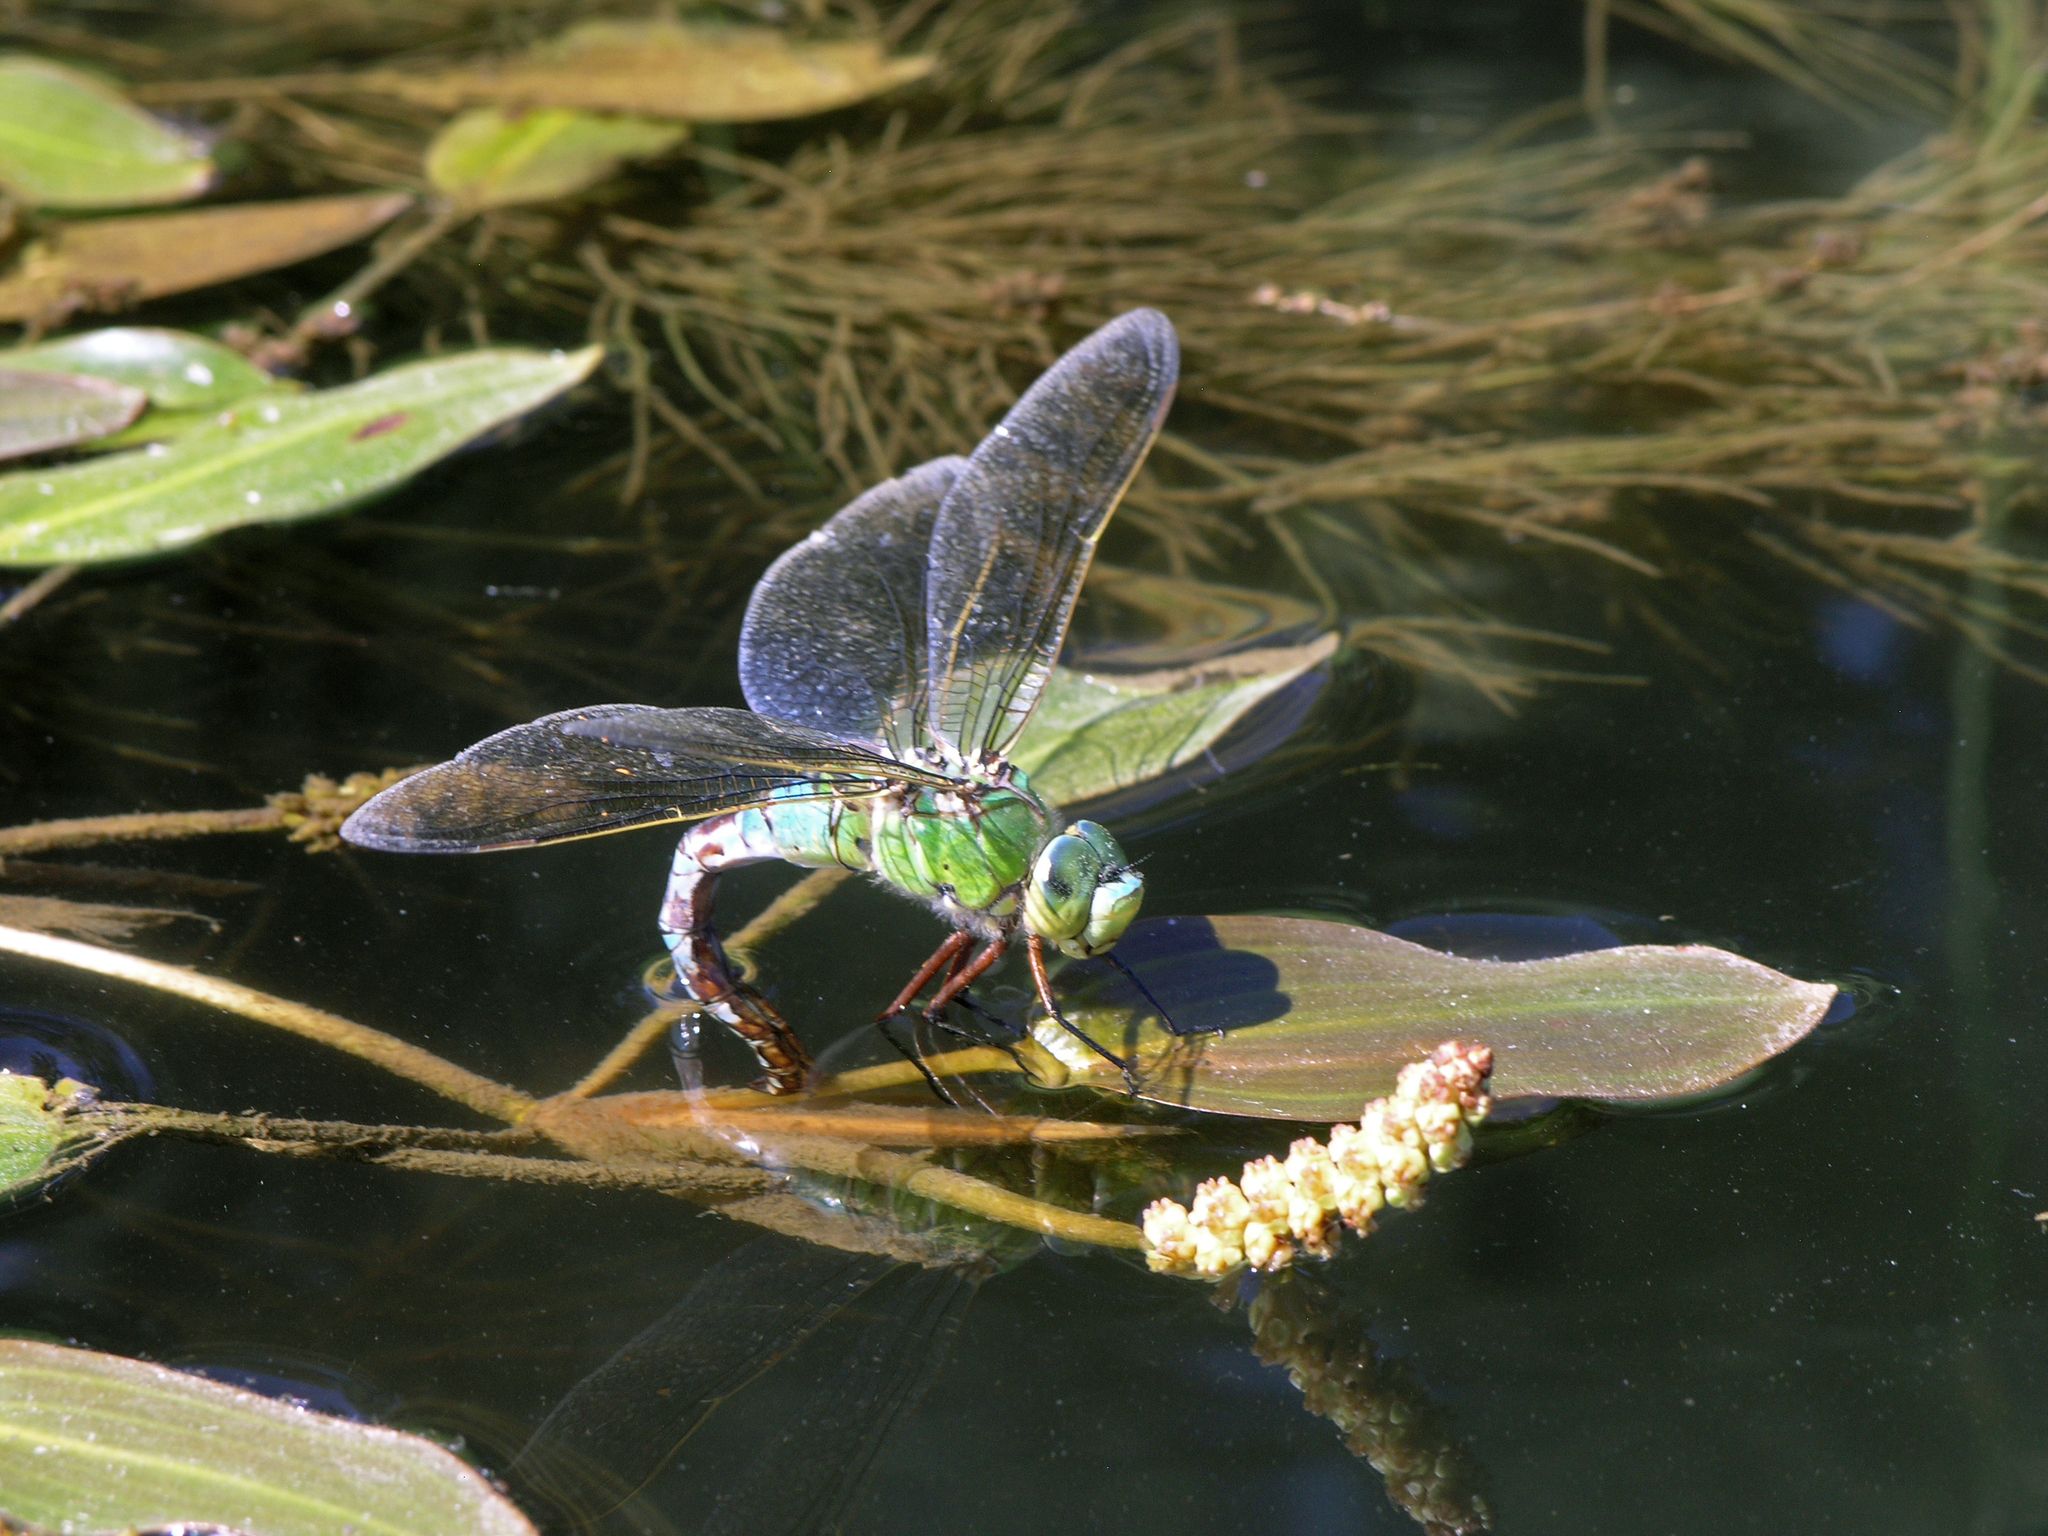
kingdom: Plantae
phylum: Tracheophyta
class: Liliopsida
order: Alismatales
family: Potamogetonaceae
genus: Potamogeton
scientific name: Potamogeton nodosus
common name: Loddon pondweed
